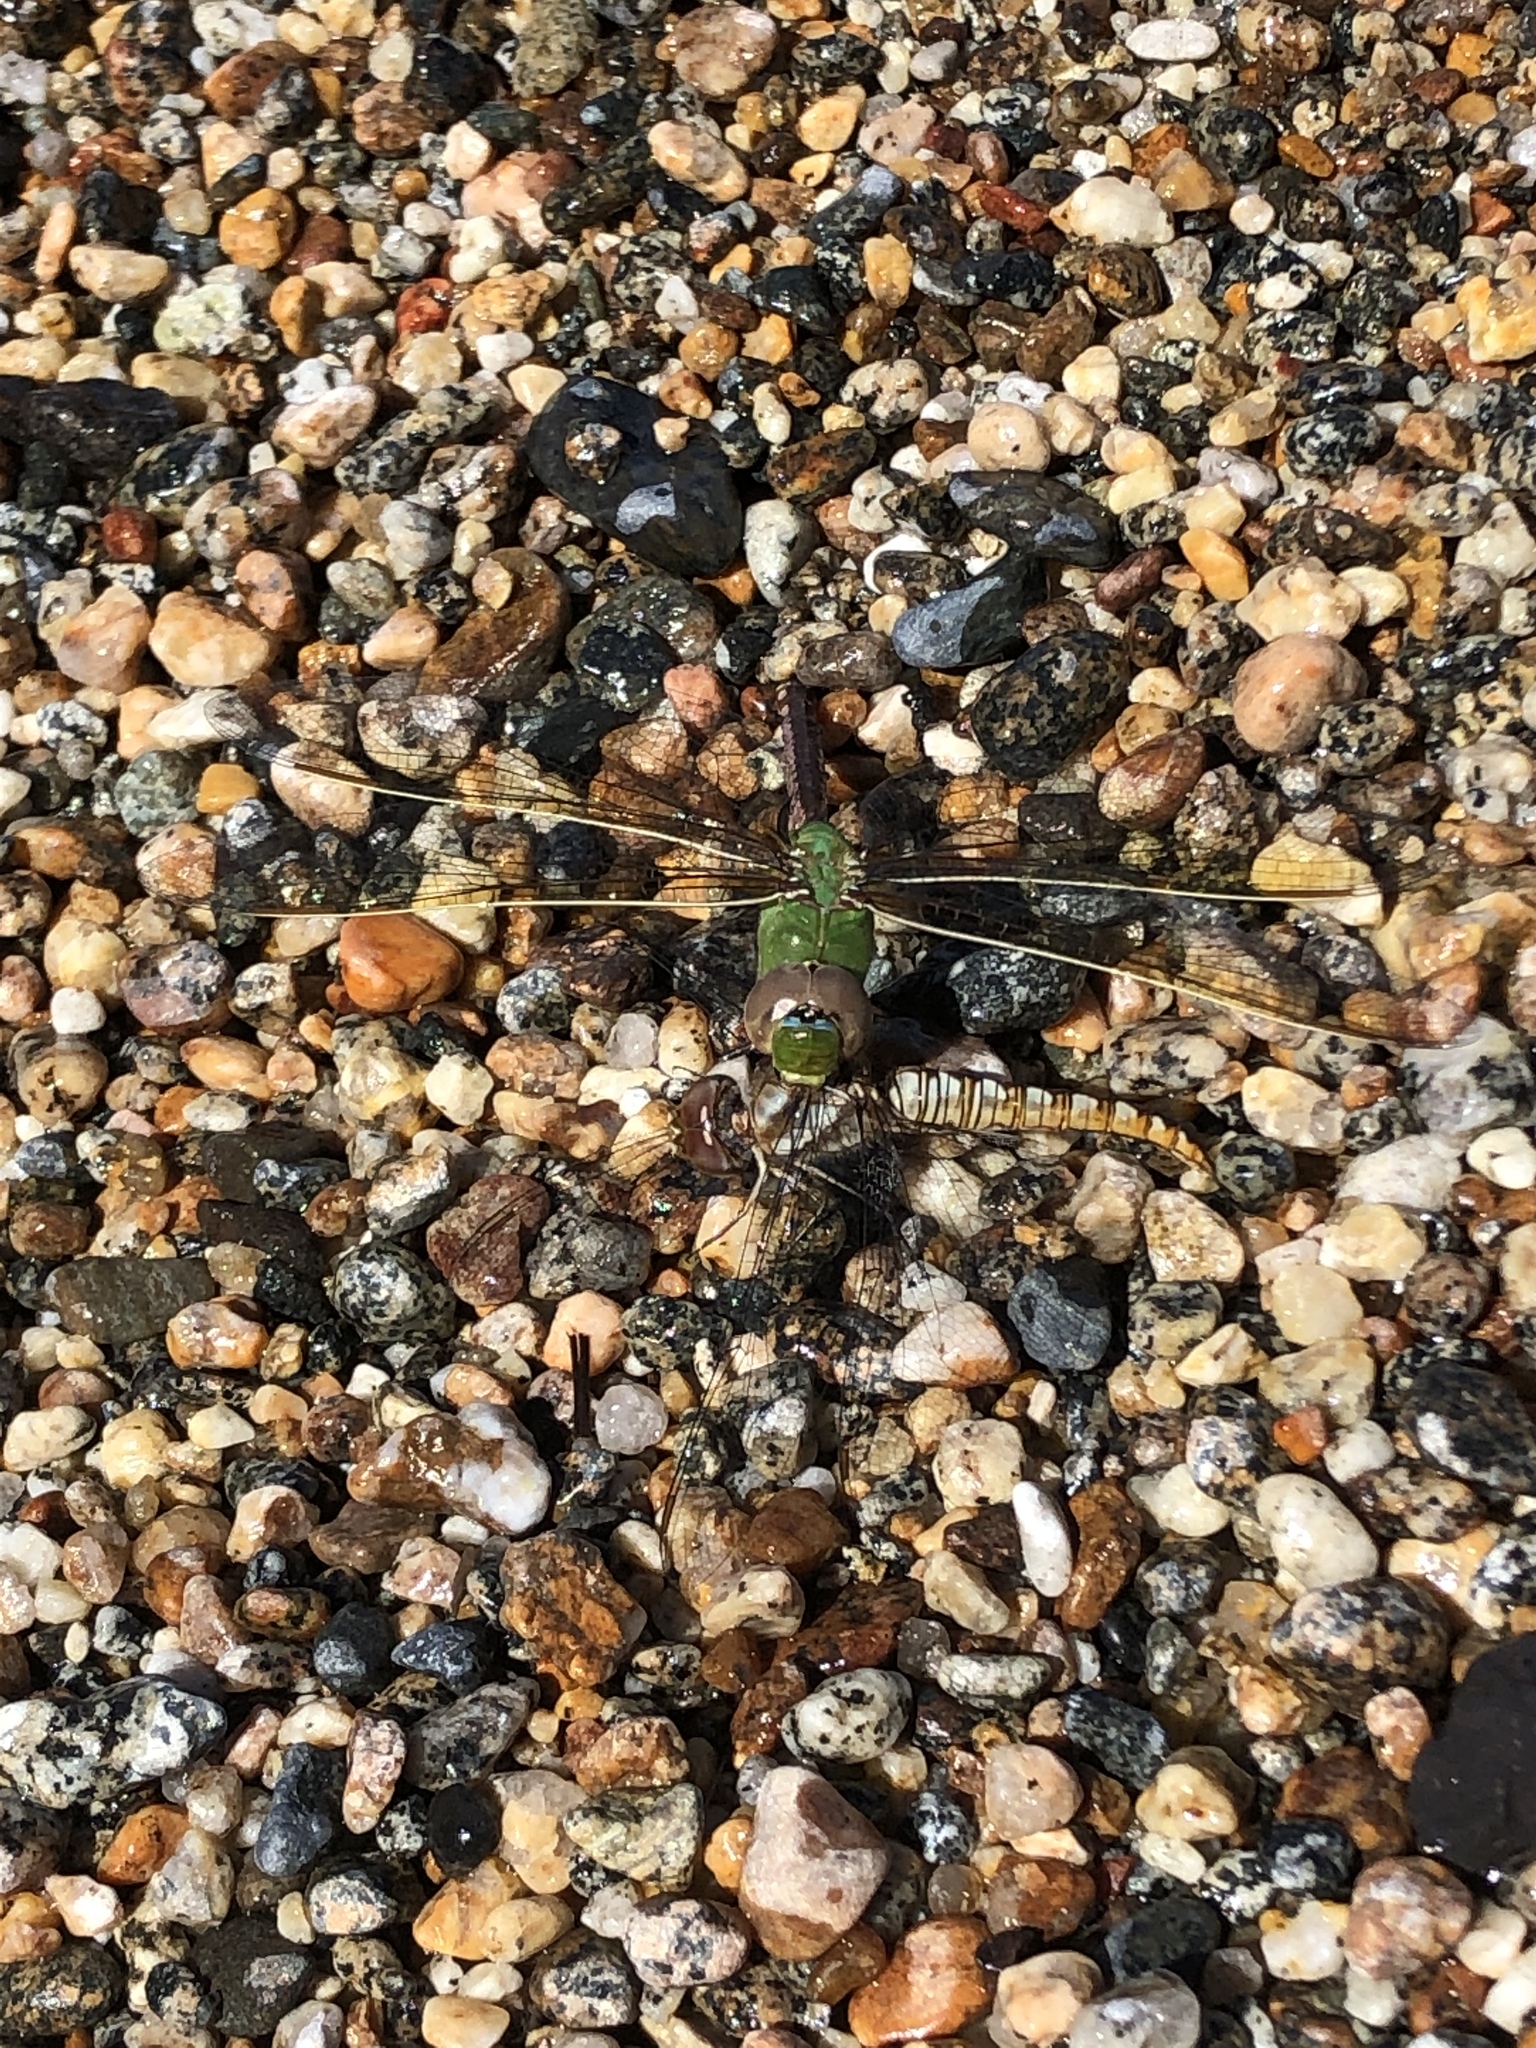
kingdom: Animalia
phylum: Arthropoda
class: Insecta
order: Odonata
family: Aeshnidae
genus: Anax
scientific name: Anax junius
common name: Common green darner
